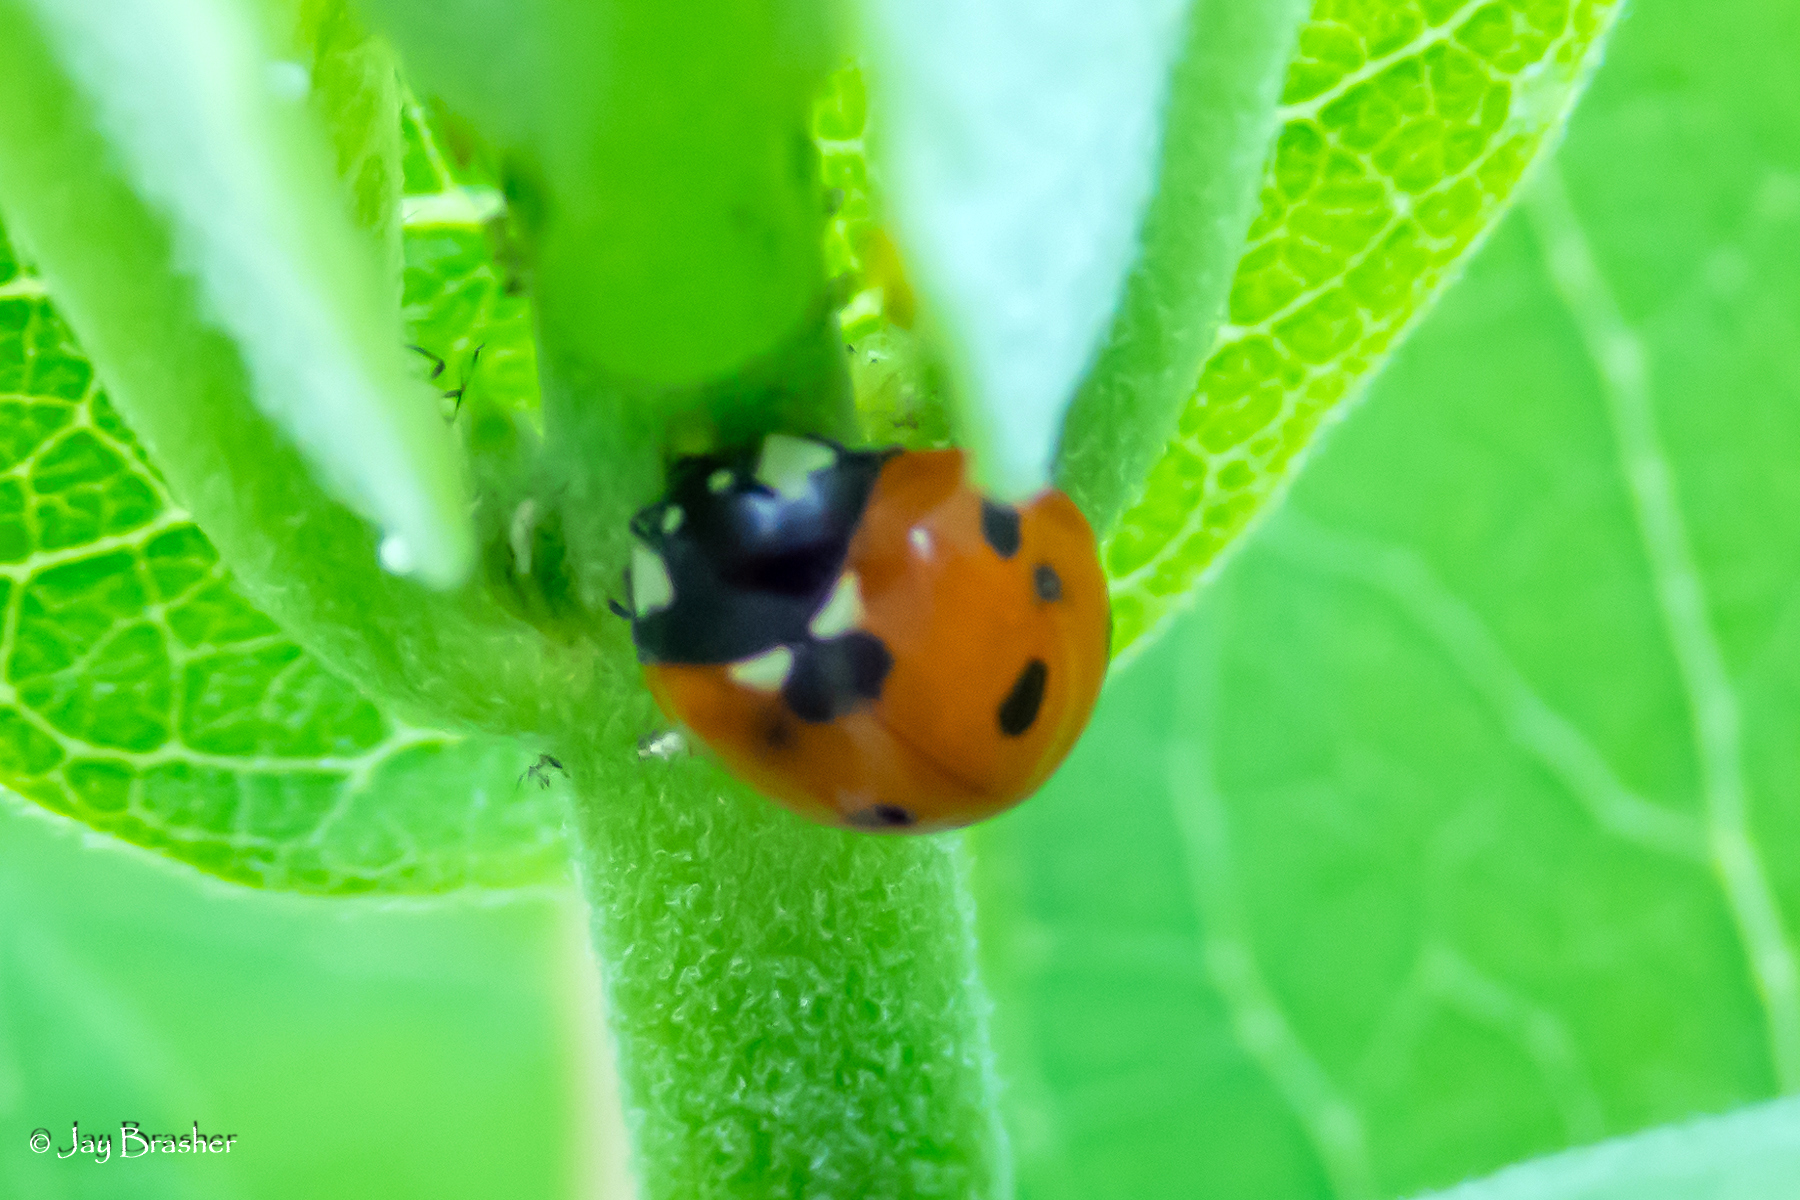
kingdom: Animalia
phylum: Arthropoda
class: Insecta
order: Coleoptera
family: Coccinellidae
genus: Coccinella
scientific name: Coccinella septempunctata
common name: Sevenspotted lady beetle
